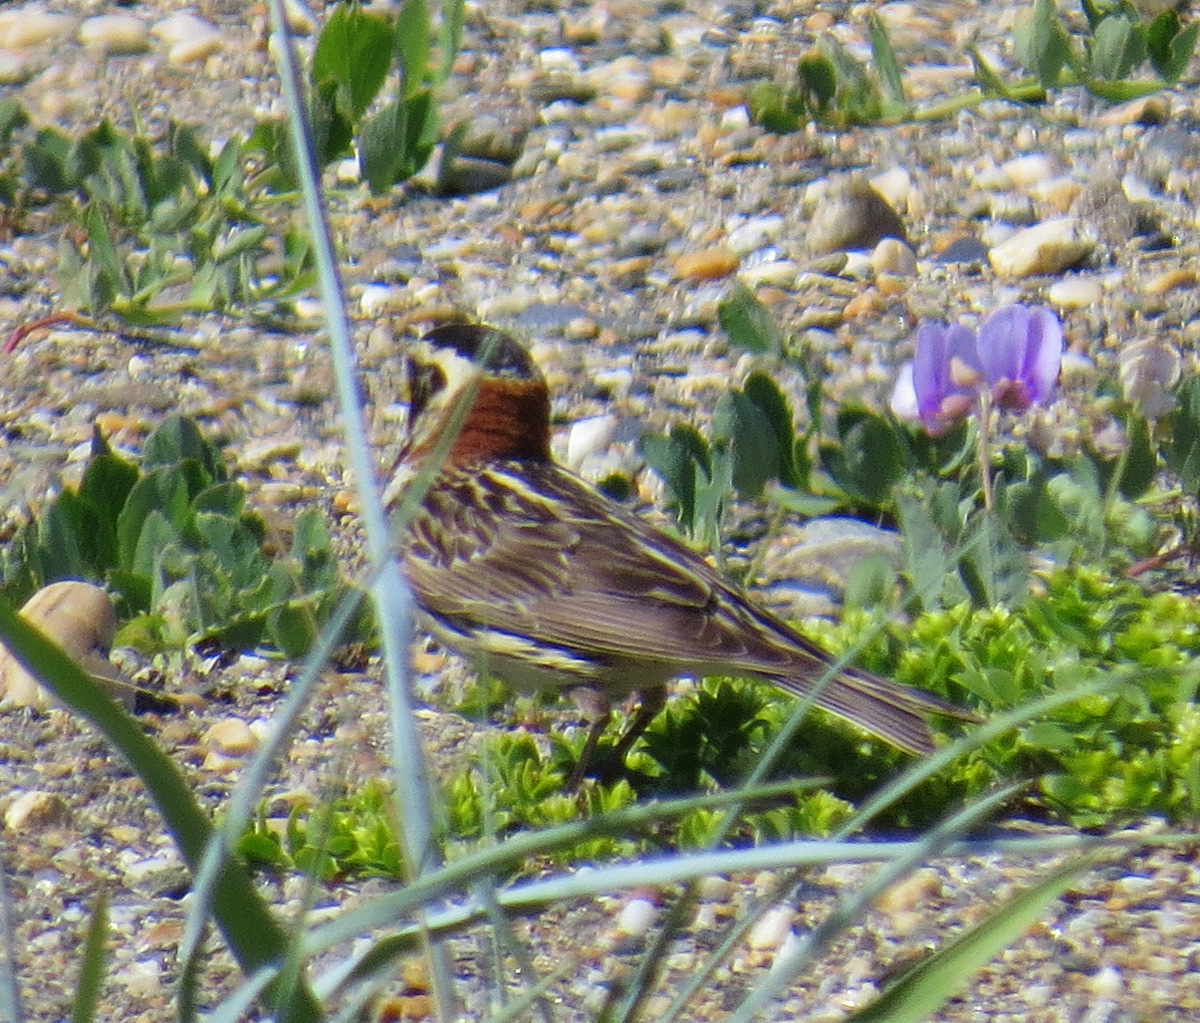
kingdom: Animalia
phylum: Chordata
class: Aves
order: Passeriformes
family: Calcariidae
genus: Calcarius
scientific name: Calcarius lapponicus
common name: Lapland longspur
